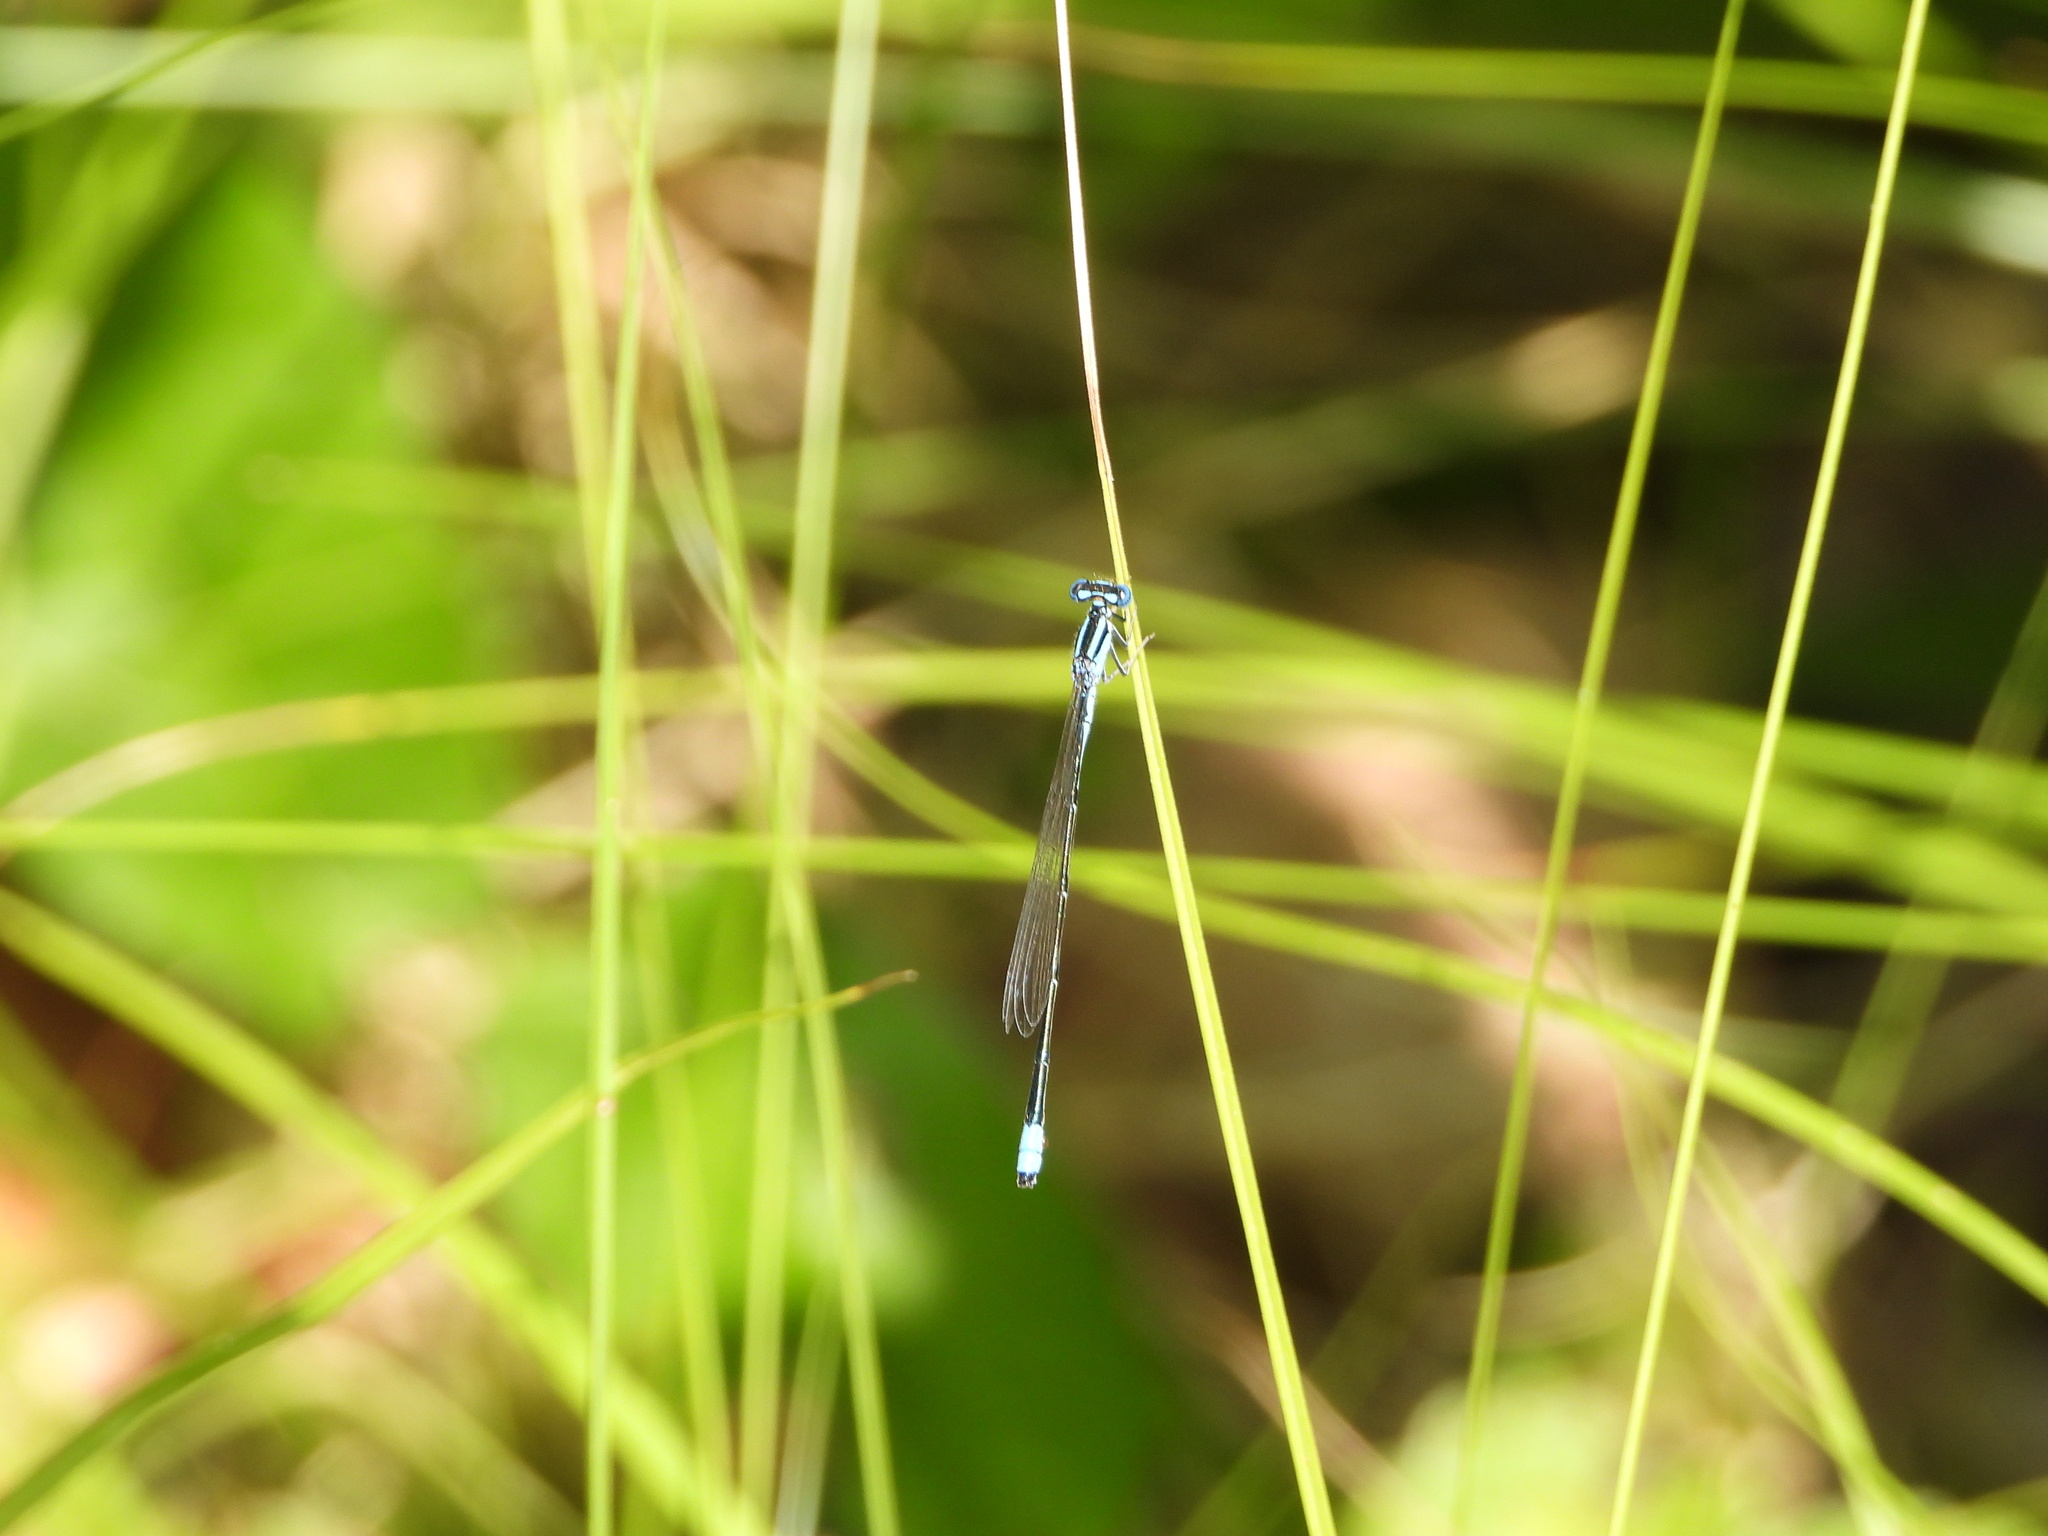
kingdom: Animalia
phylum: Arthropoda
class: Insecta
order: Odonata
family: Coenagrionidae
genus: Enallagma
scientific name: Enallagma divagans
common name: Turquoise bluet
